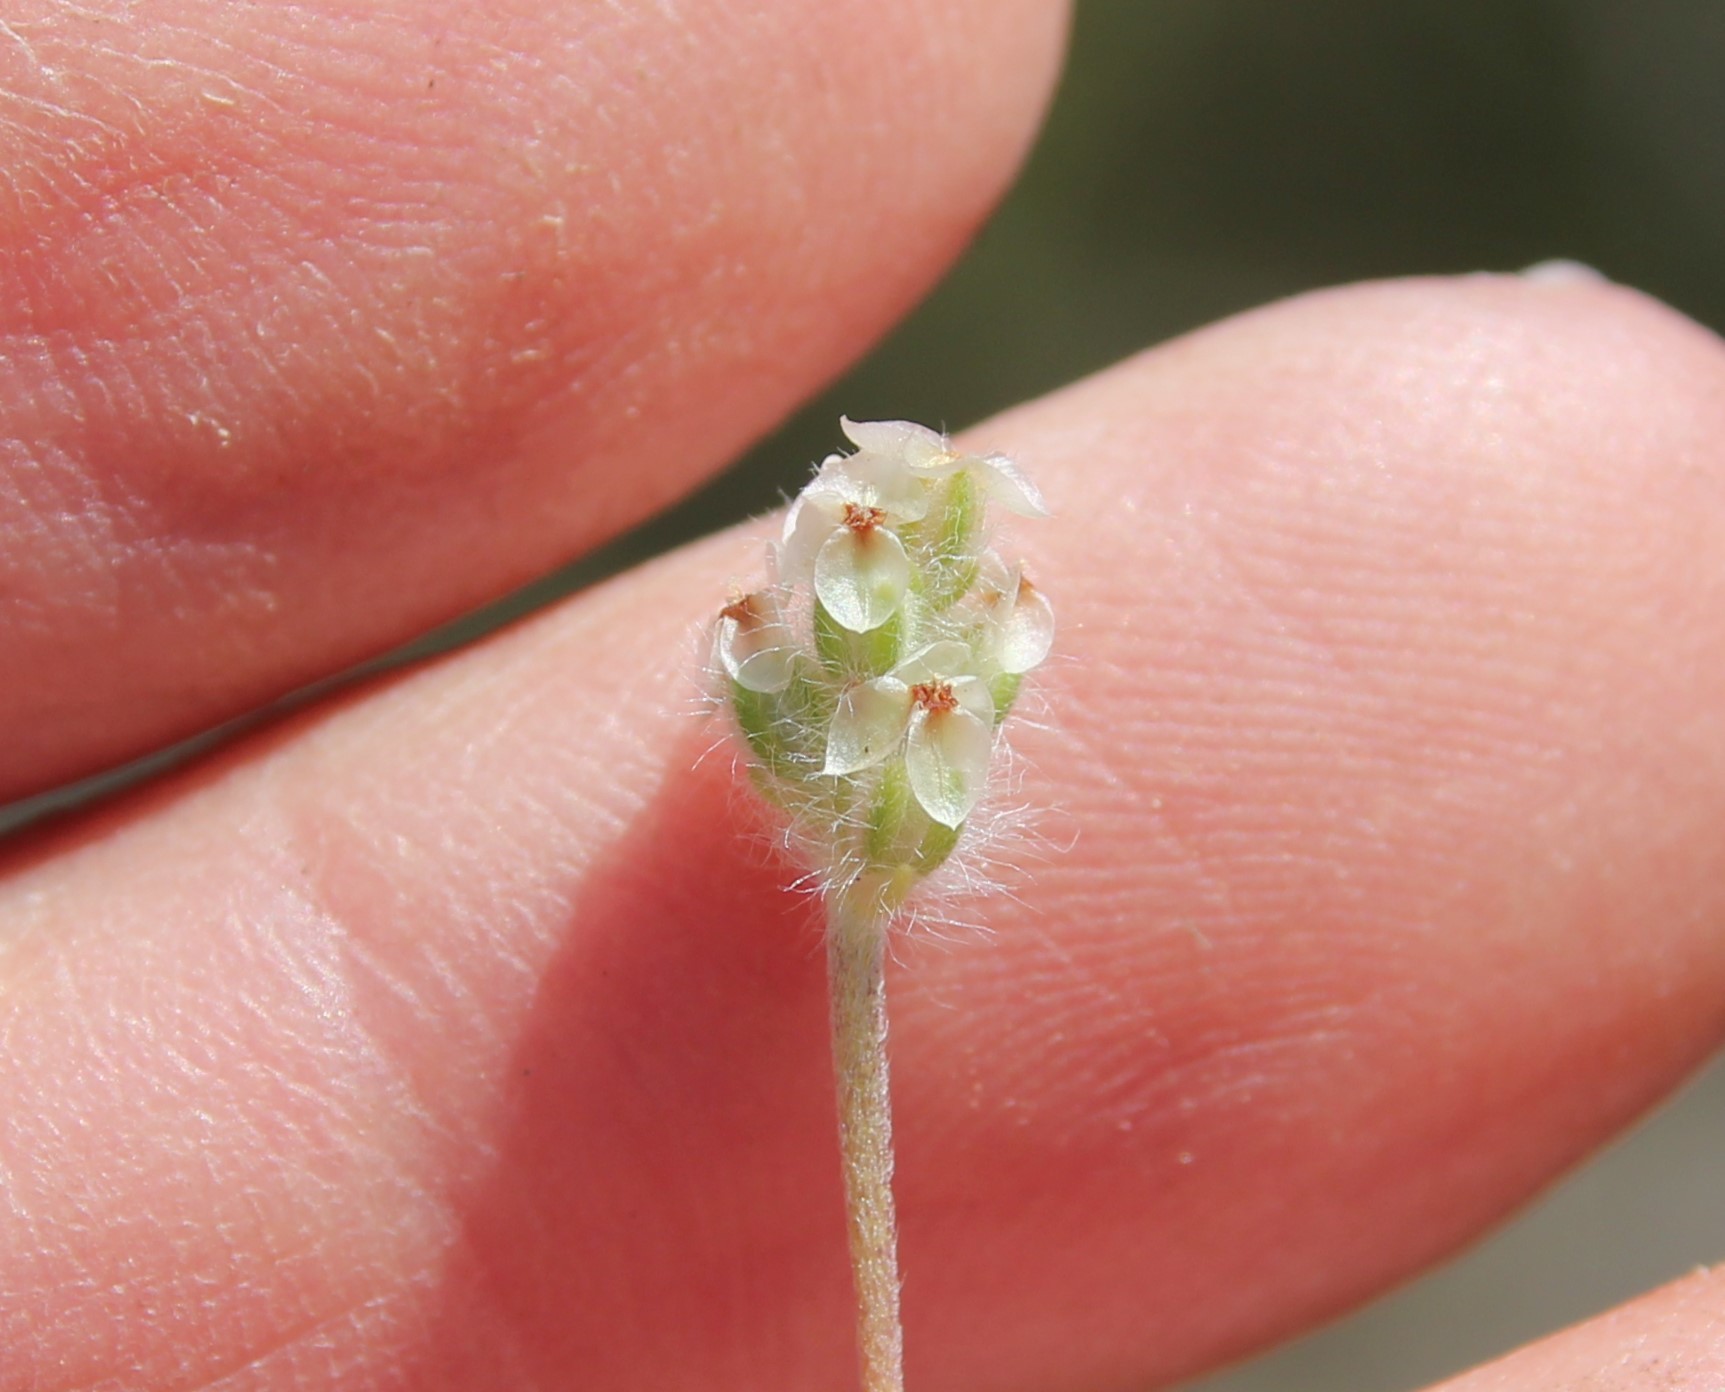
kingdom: Plantae
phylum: Tracheophyta
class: Magnoliopsida
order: Lamiales
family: Plantaginaceae
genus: Plantago
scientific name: Plantago erecta
